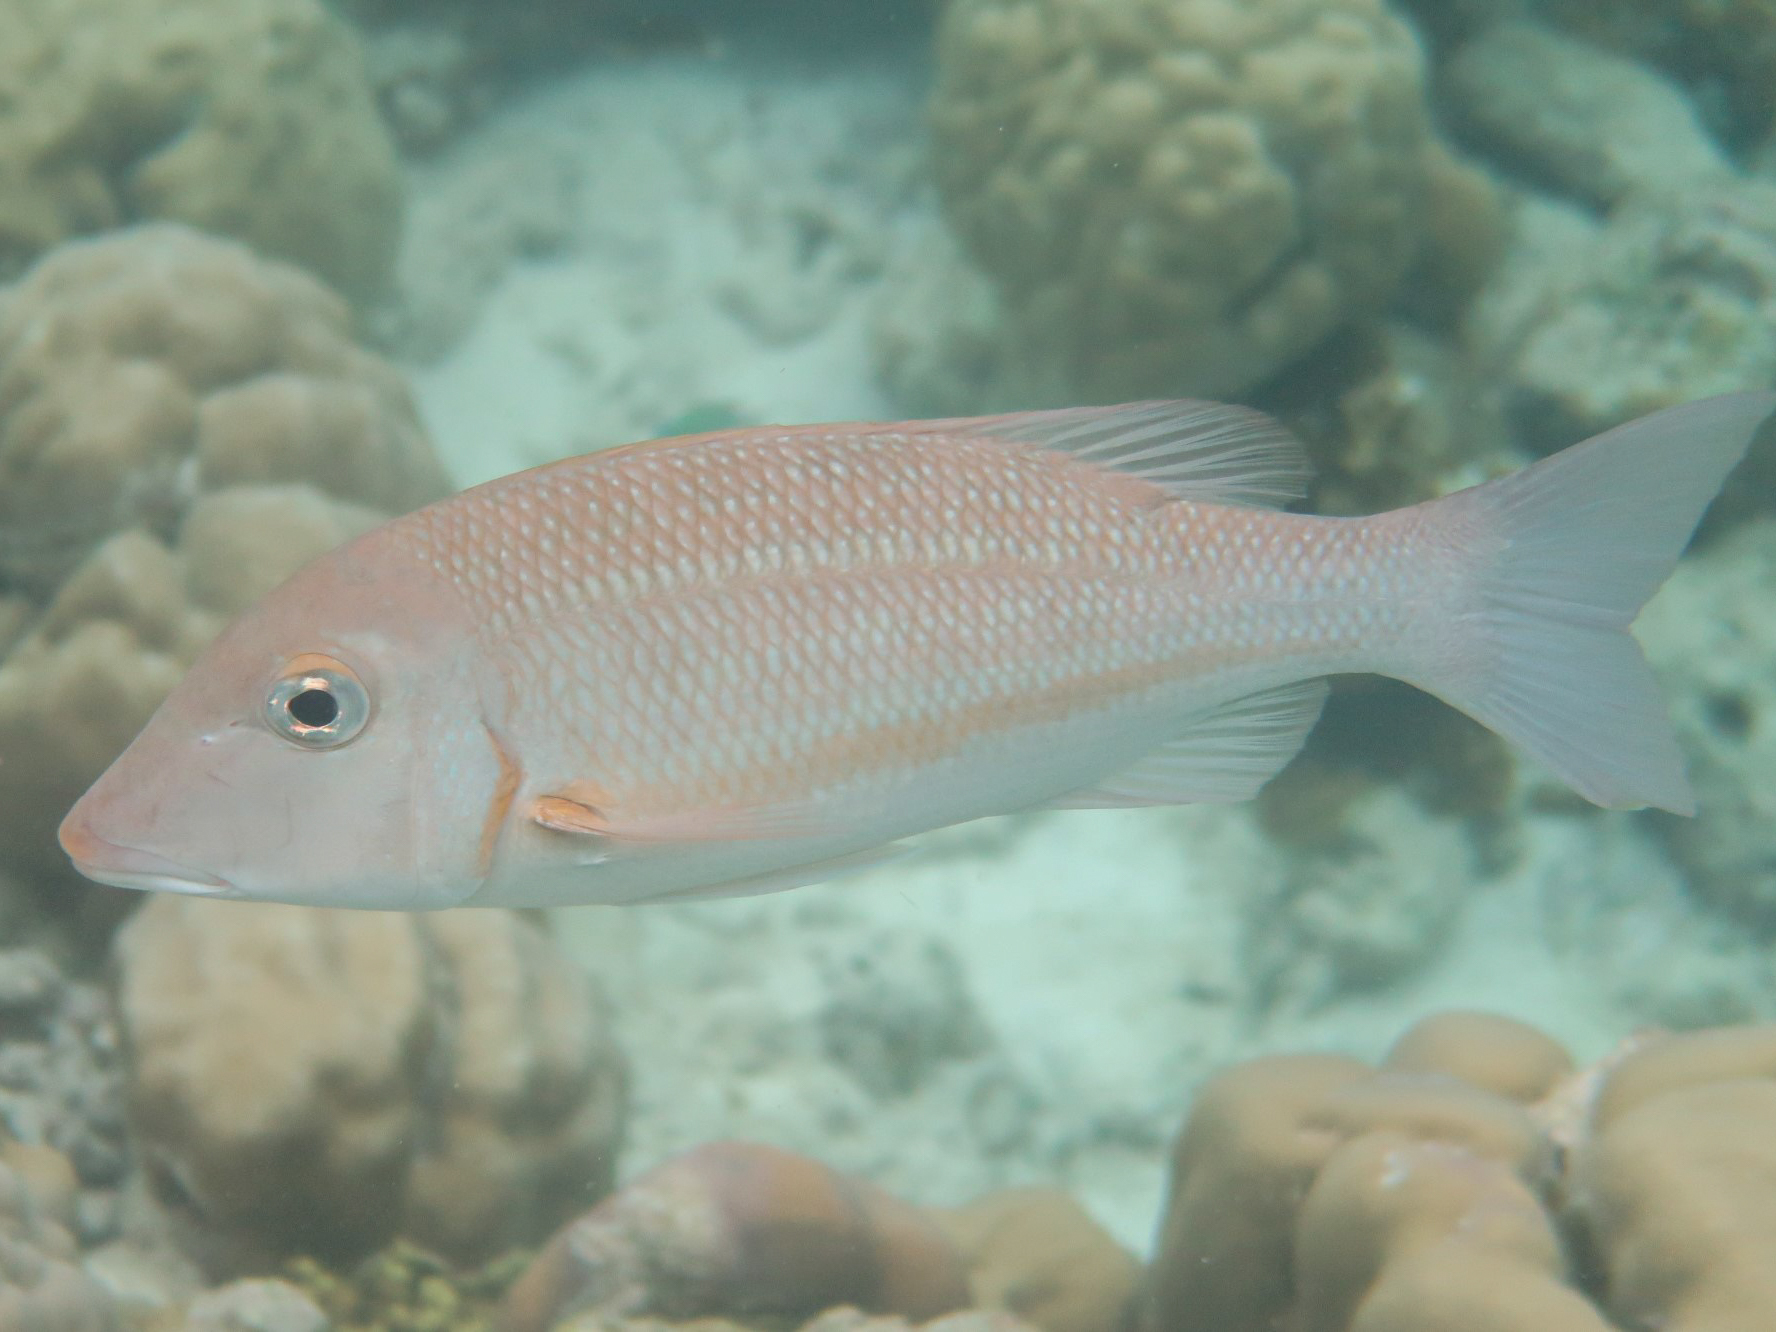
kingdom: Animalia
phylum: Chordata
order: Perciformes
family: Lethrinidae
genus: Lethrinus
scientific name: Lethrinus obsoletus
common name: Orange-striped emperor
